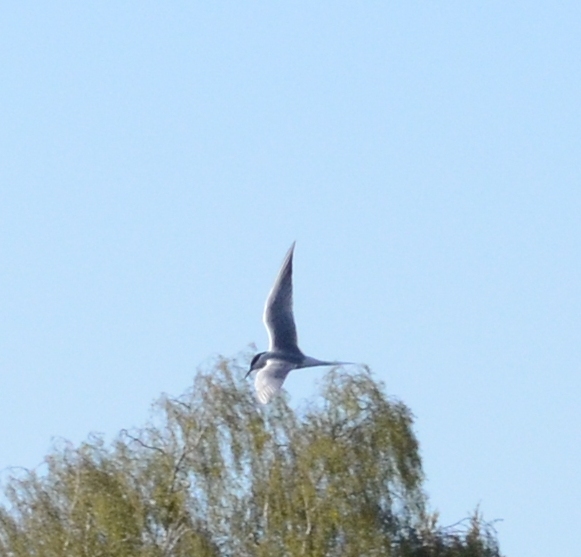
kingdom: Animalia
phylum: Chordata
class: Aves
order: Charadriiformes
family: Laridae
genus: Sterna
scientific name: Sterna hirundo
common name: Common tern
